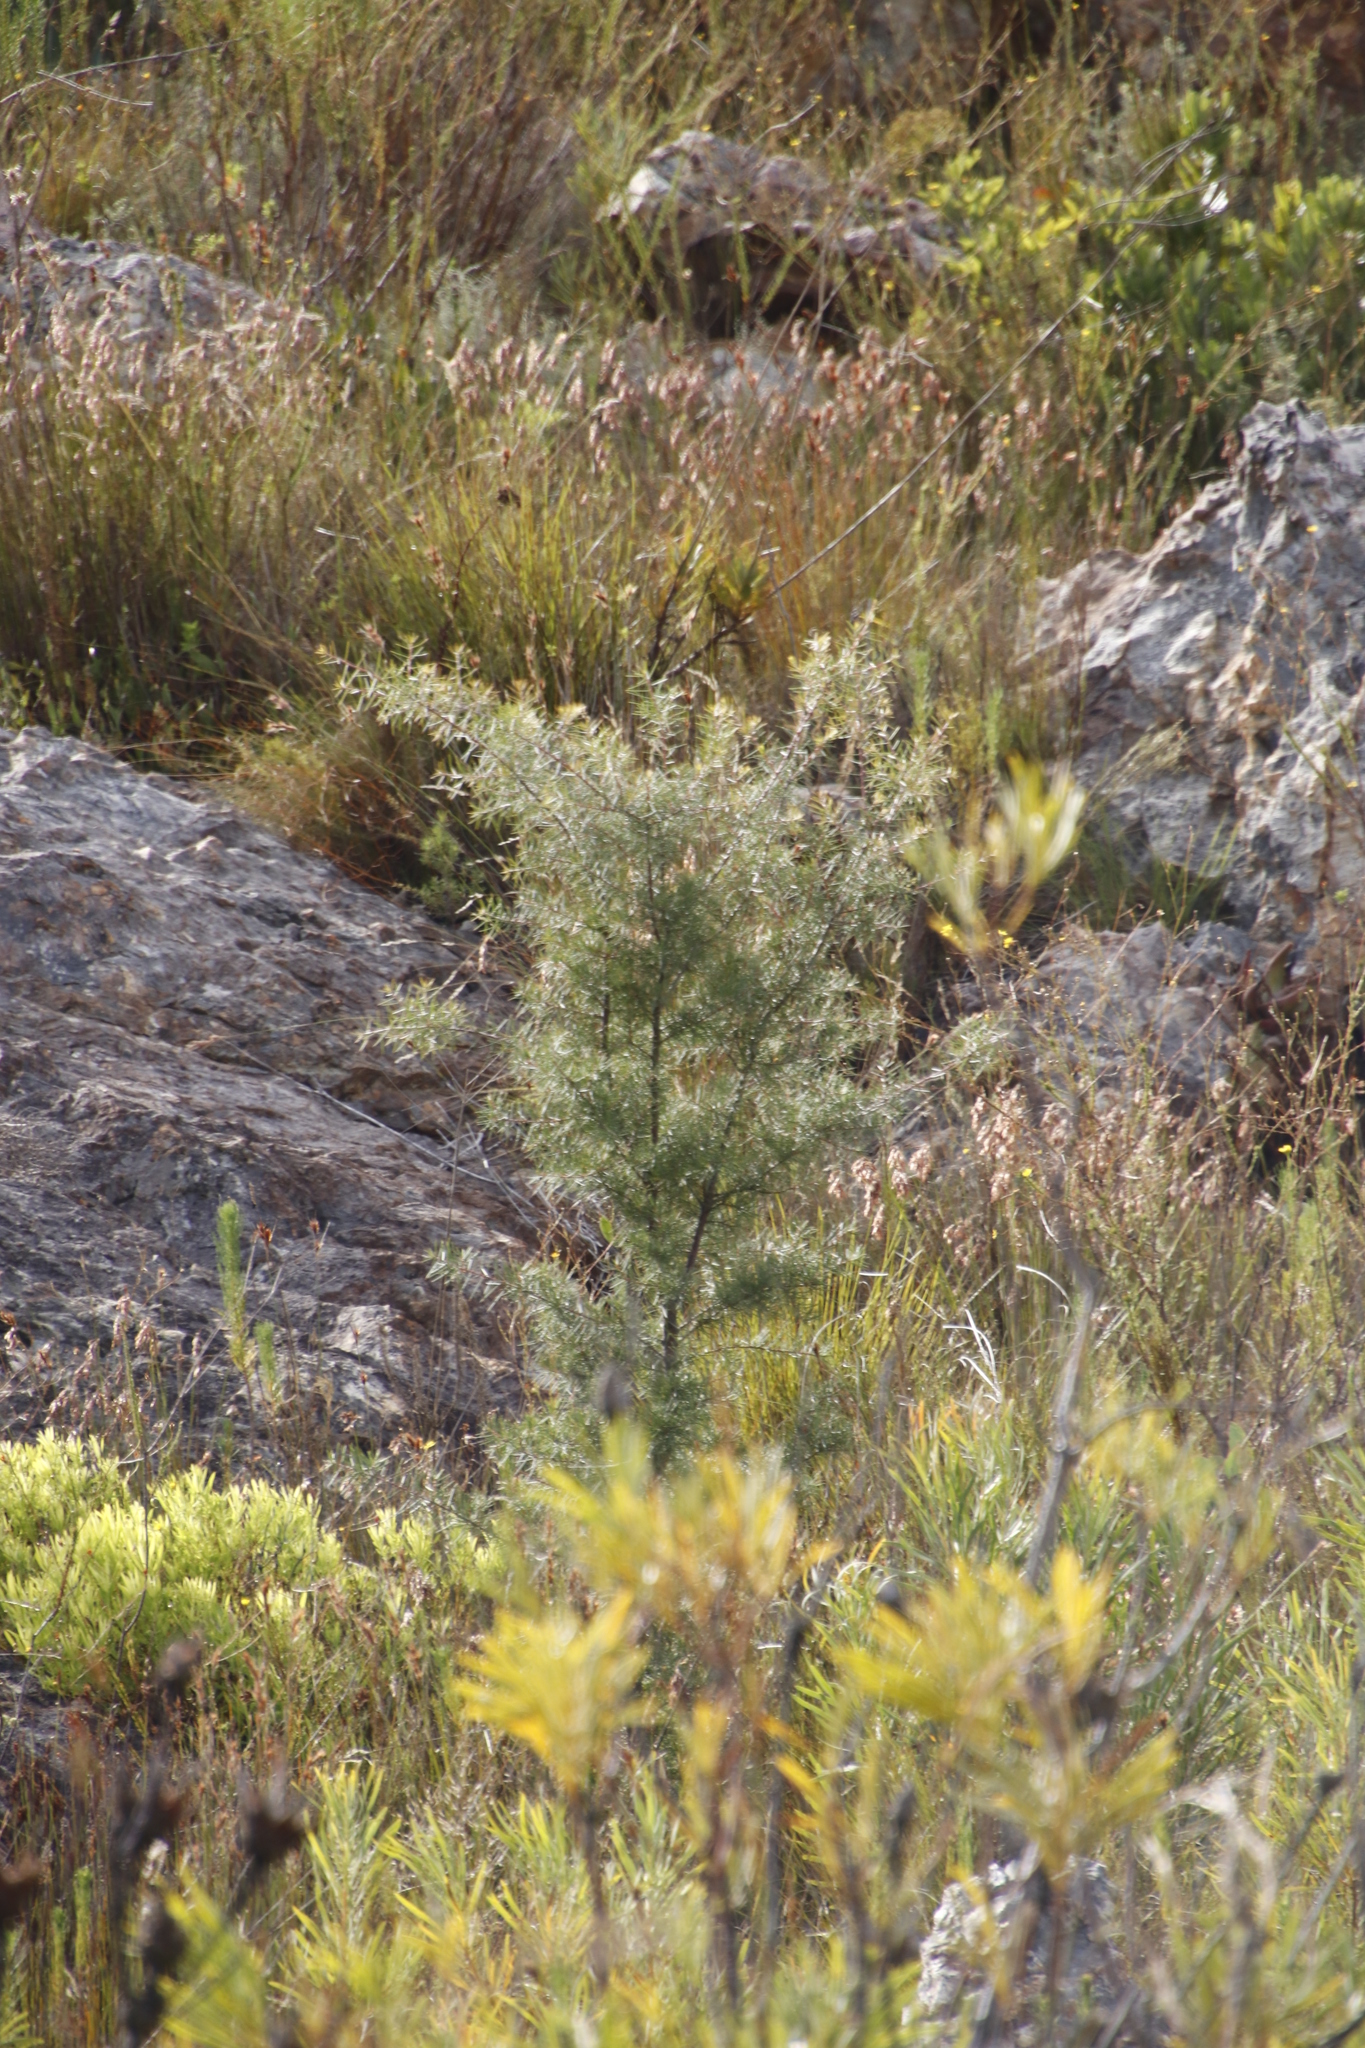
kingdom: Plantae
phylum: Tracheophyta
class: Magnoliopsida
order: Proteales
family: Proteaceae
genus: Hakea
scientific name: Hakea sericea
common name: Needle bush
